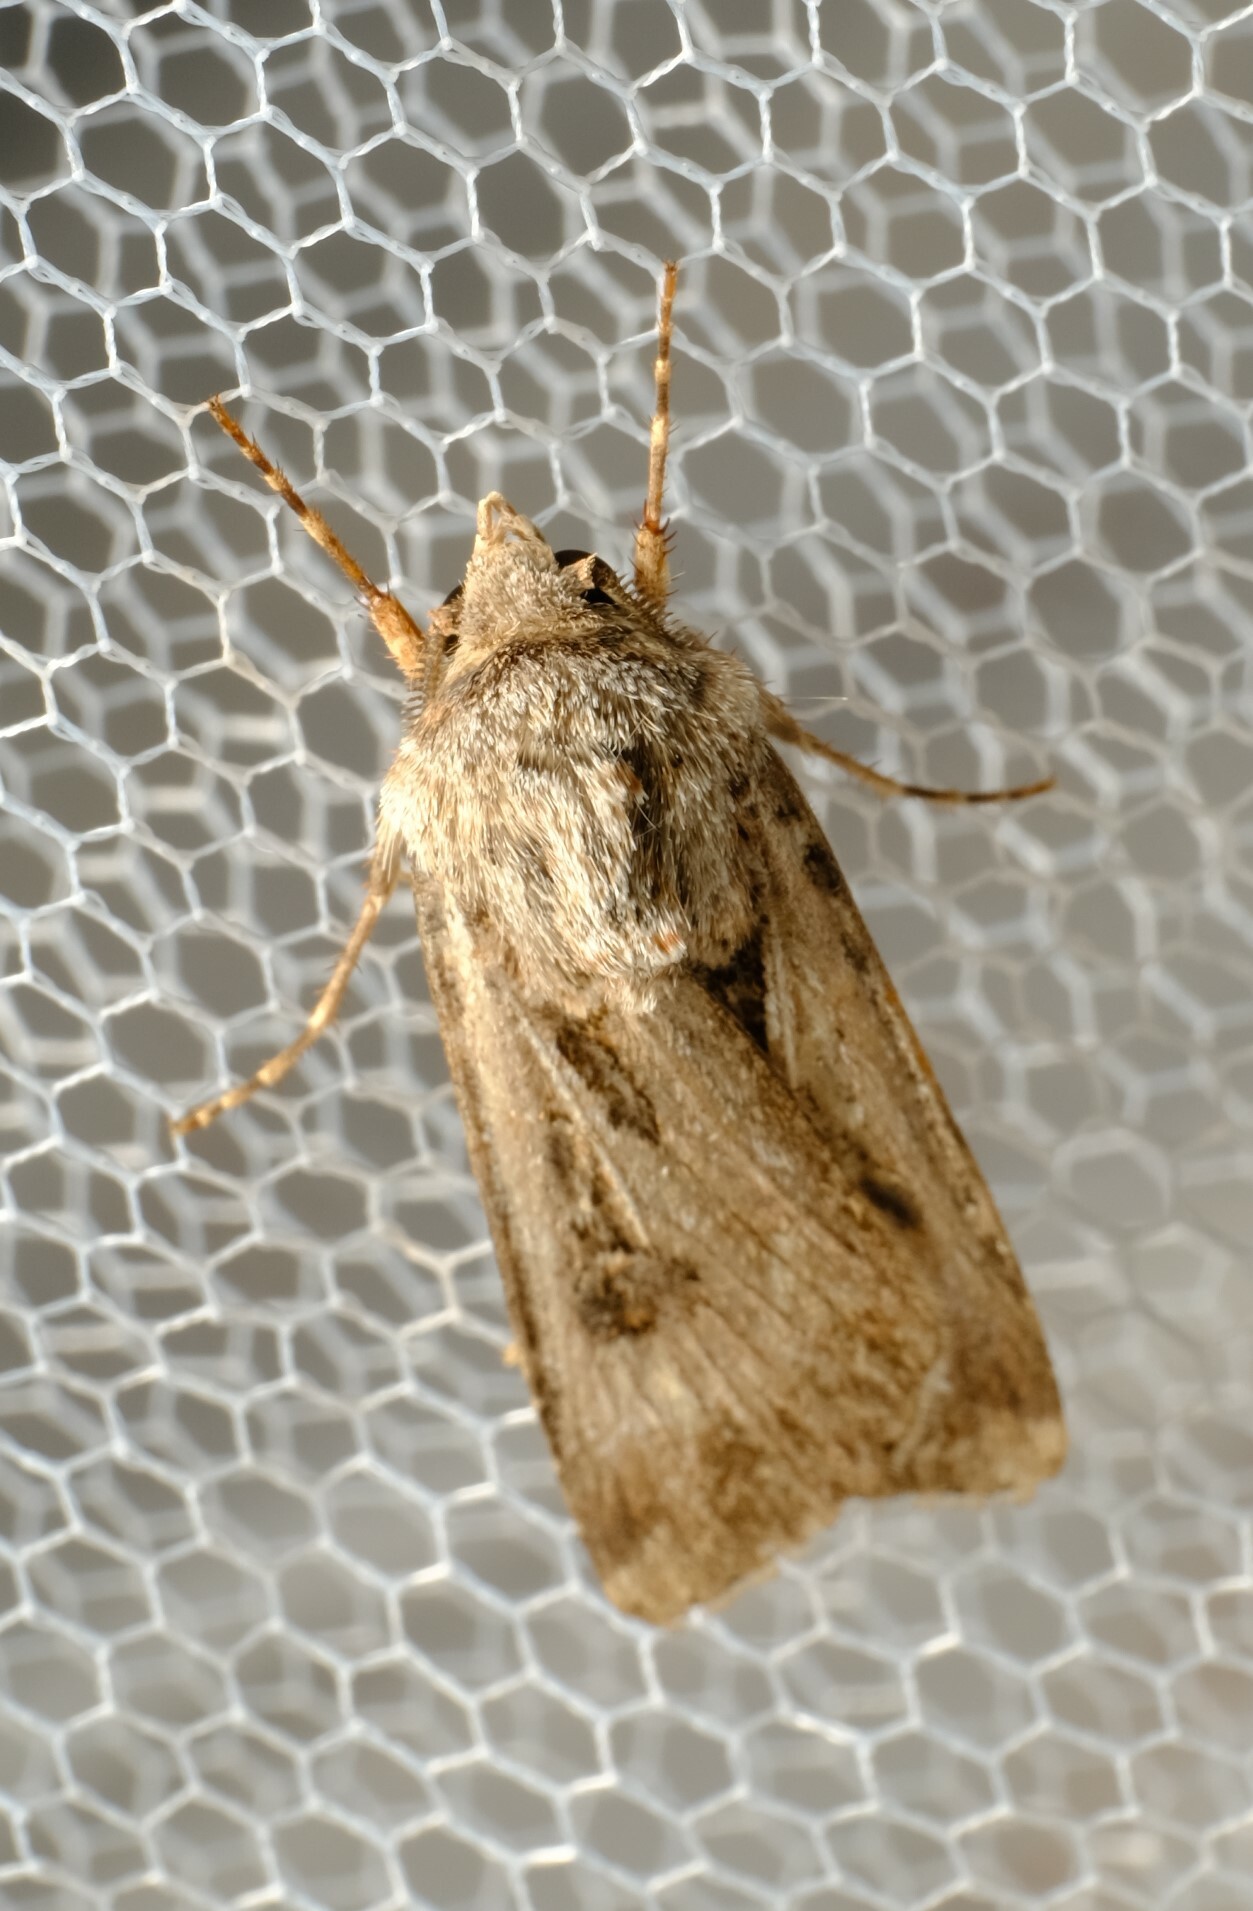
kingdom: Animalia
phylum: Arthropoda
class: Insecta
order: Lepidoptera
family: Noctuidae
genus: Agrotis
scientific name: Agrotis munda
